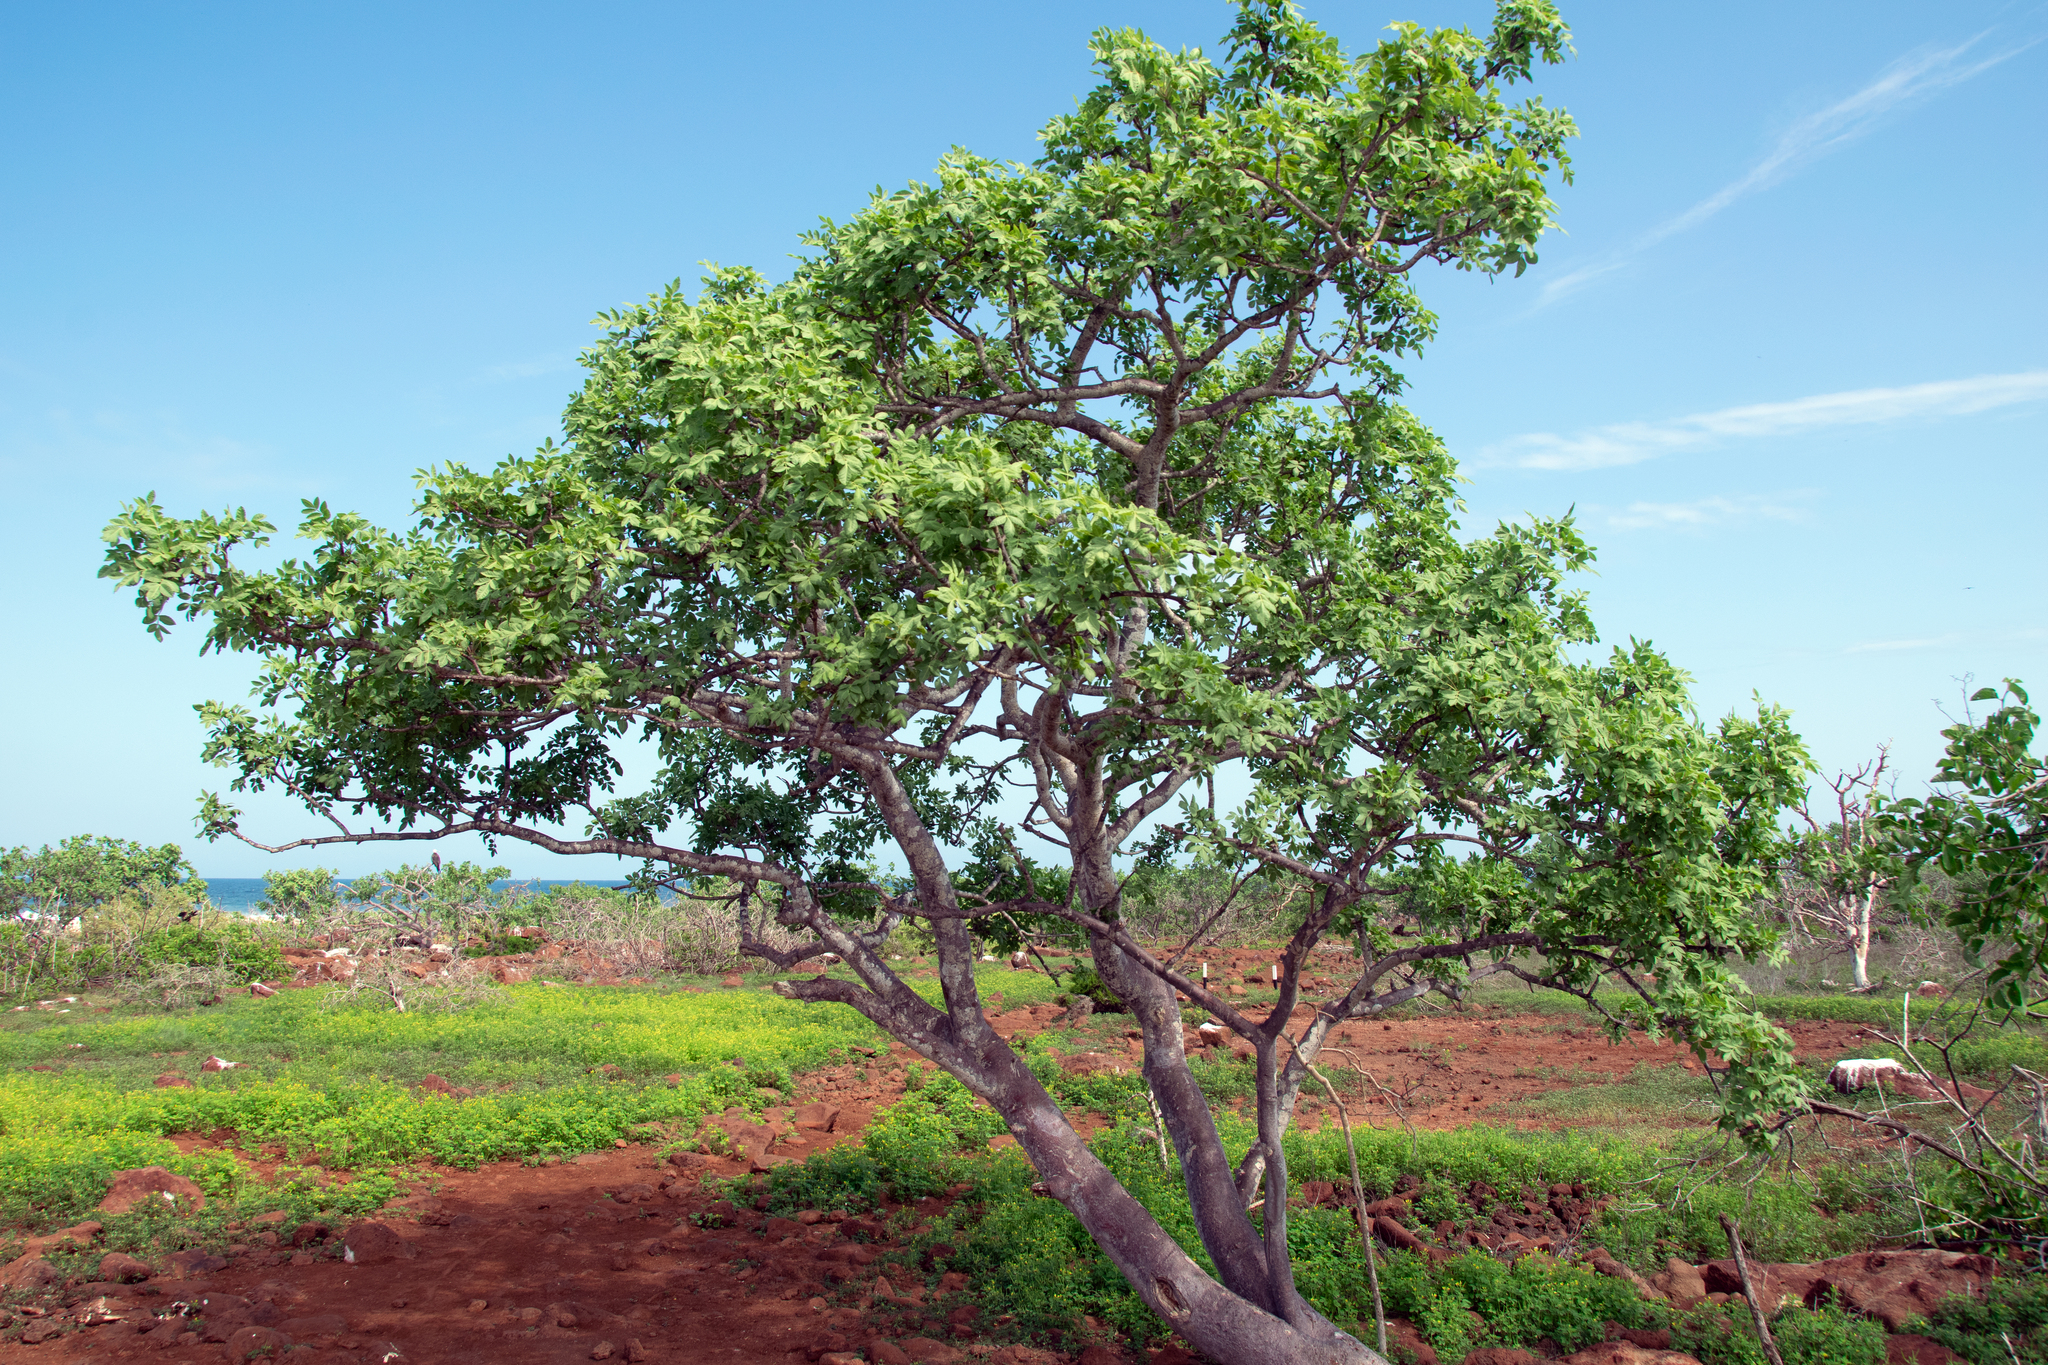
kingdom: Plantae
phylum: Tracheophyta
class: Magnoliopsida
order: Sapindales
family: Burseraceae
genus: Bursera
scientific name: Bursera graveolens
